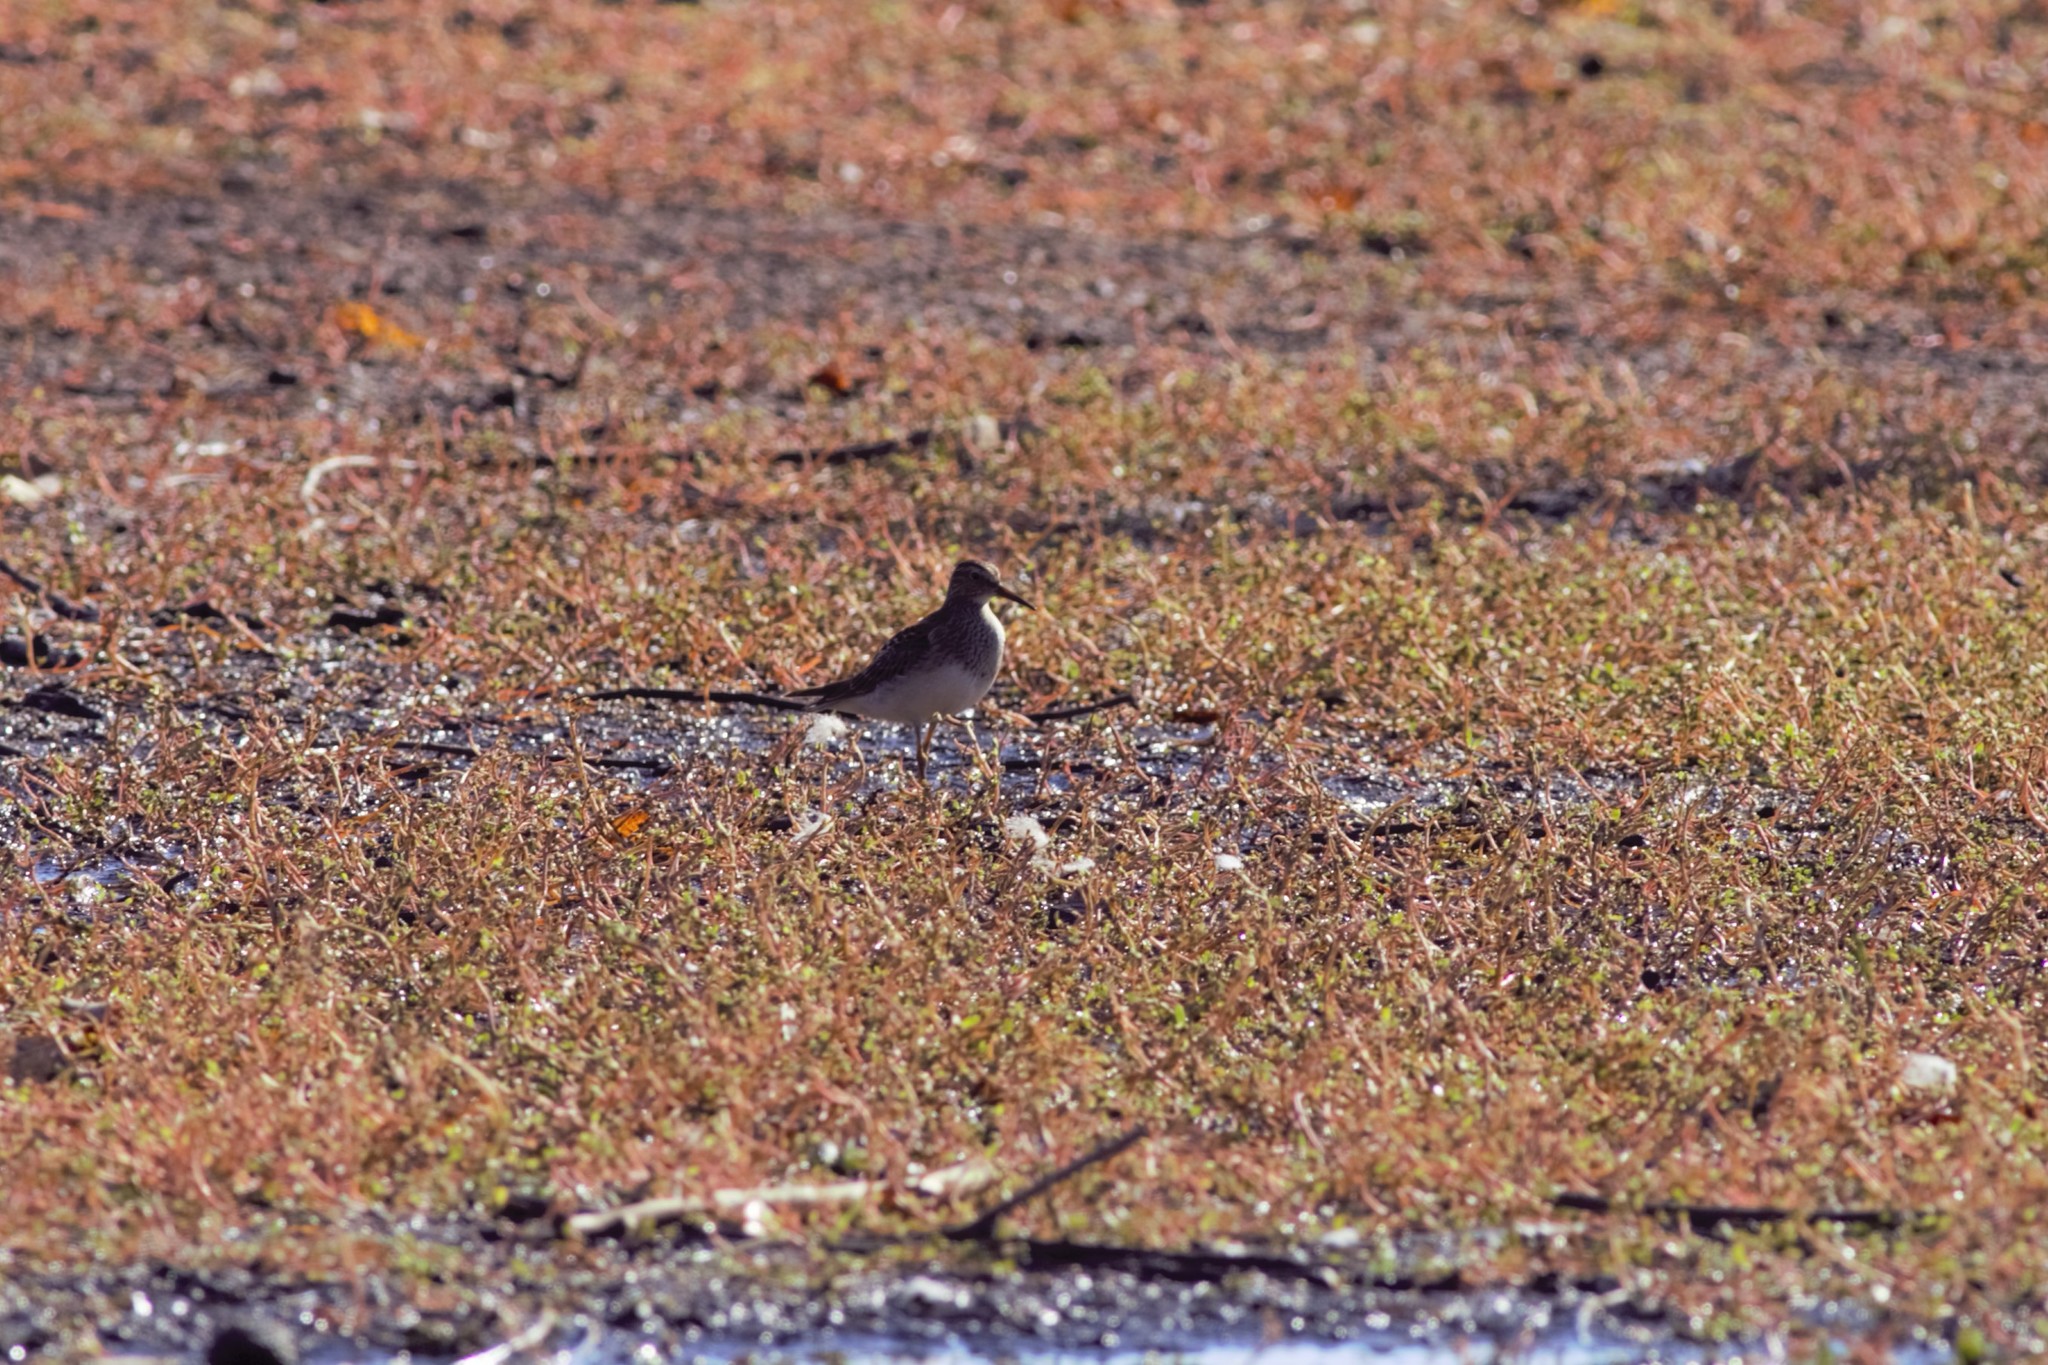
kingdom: Animalia
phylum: Chordata
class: Aves
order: Charadriiformes
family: Scolopacidae
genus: Calidris
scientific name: Calidris melanotos
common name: Pectoral sandpiper
